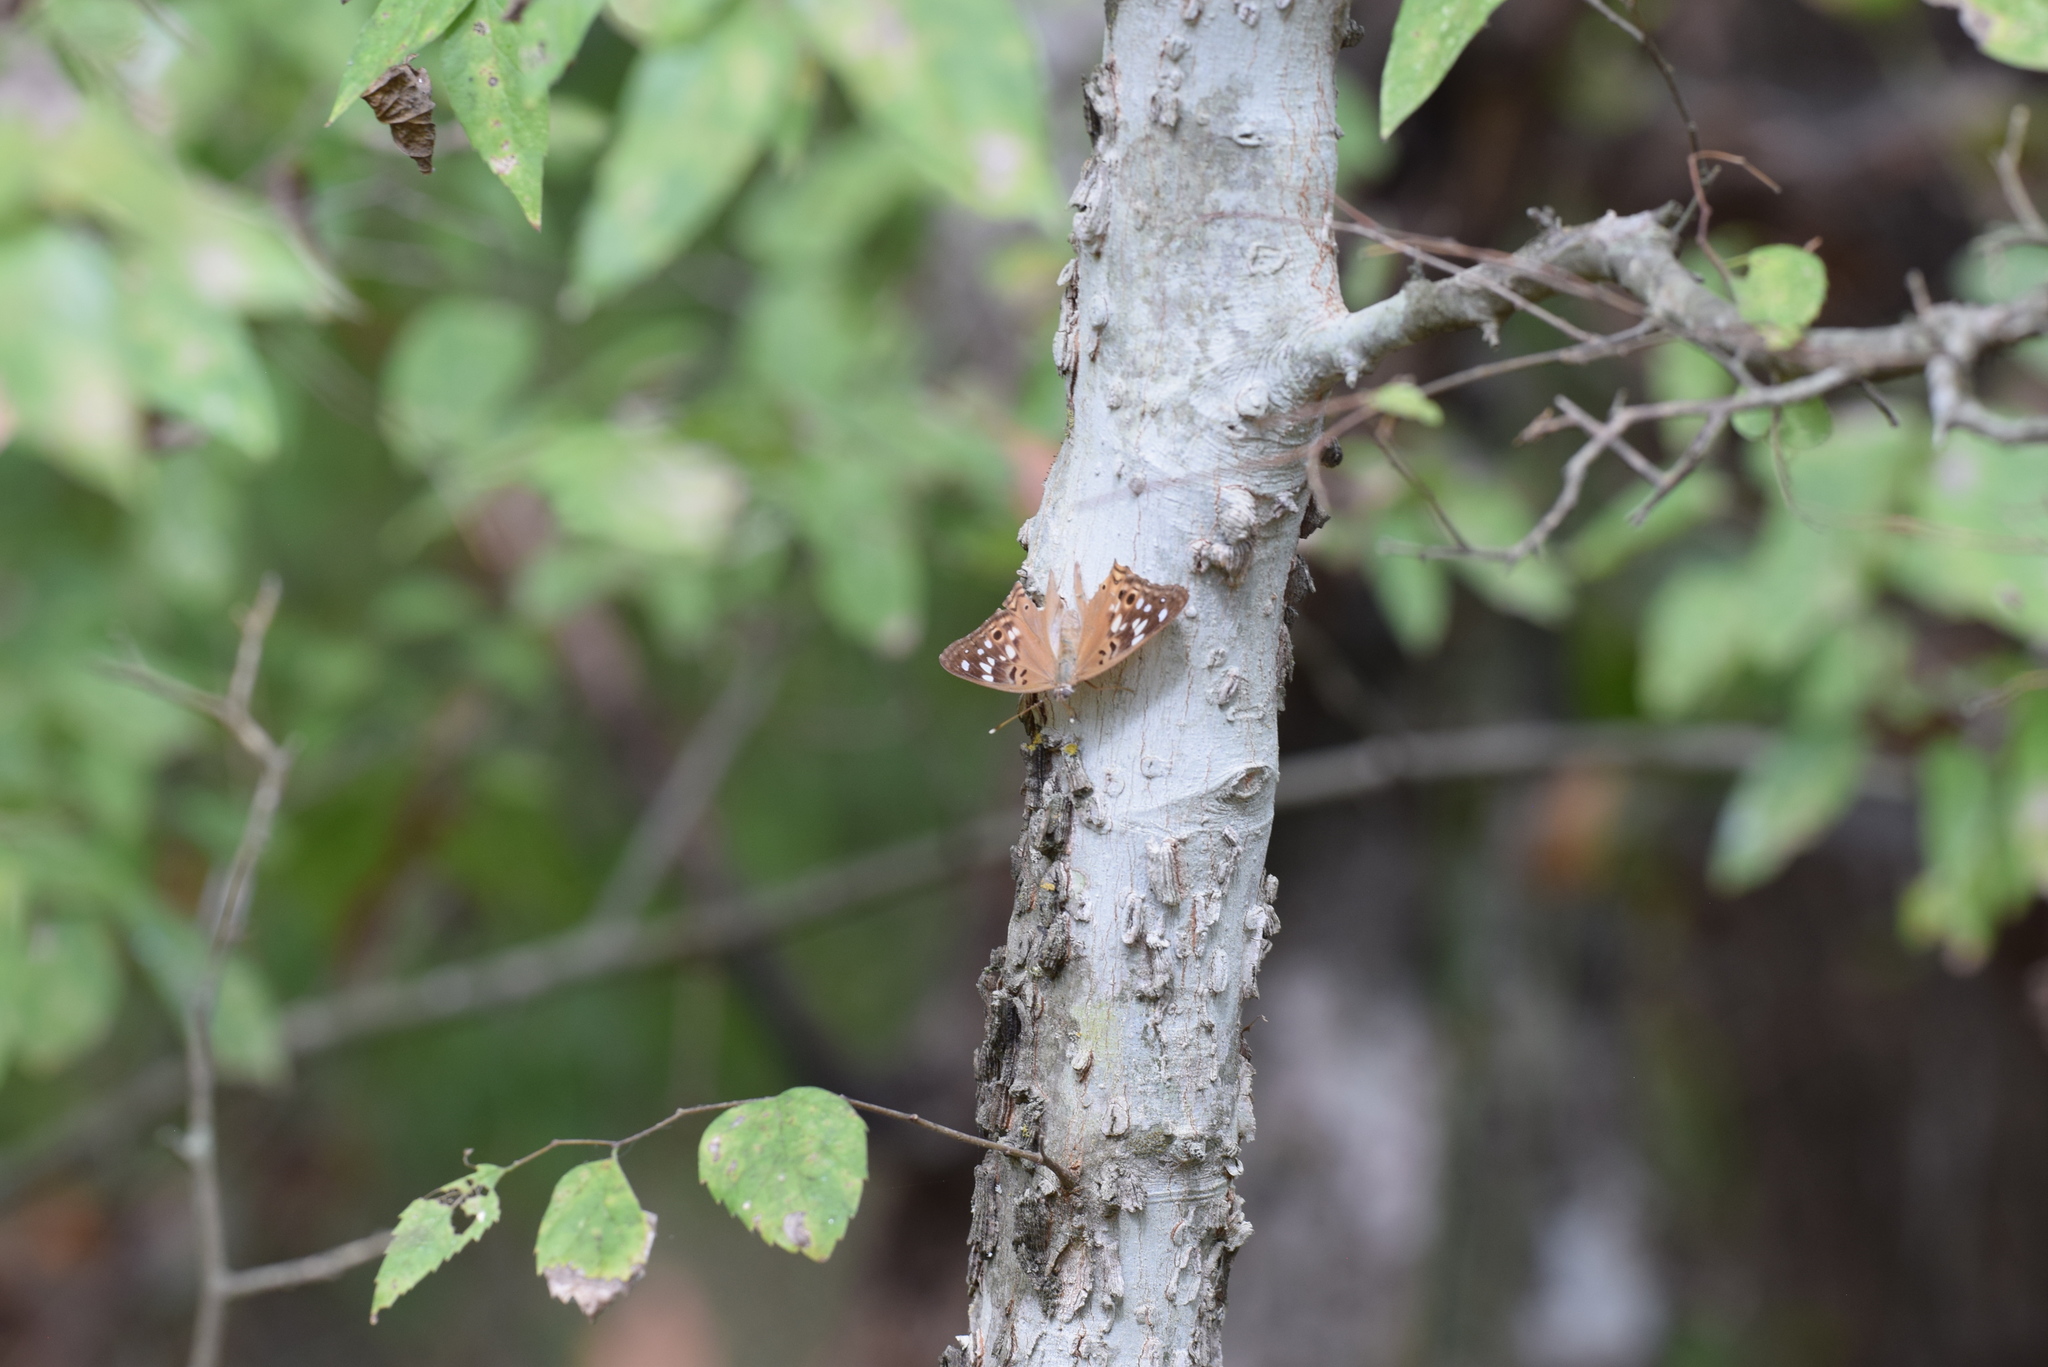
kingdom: Animalia
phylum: Arthropoda
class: Insecta
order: Lepidoptera
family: Nymphalidae
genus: Asterocampa
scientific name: Asterocampa celtis
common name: Hackberry emperor
